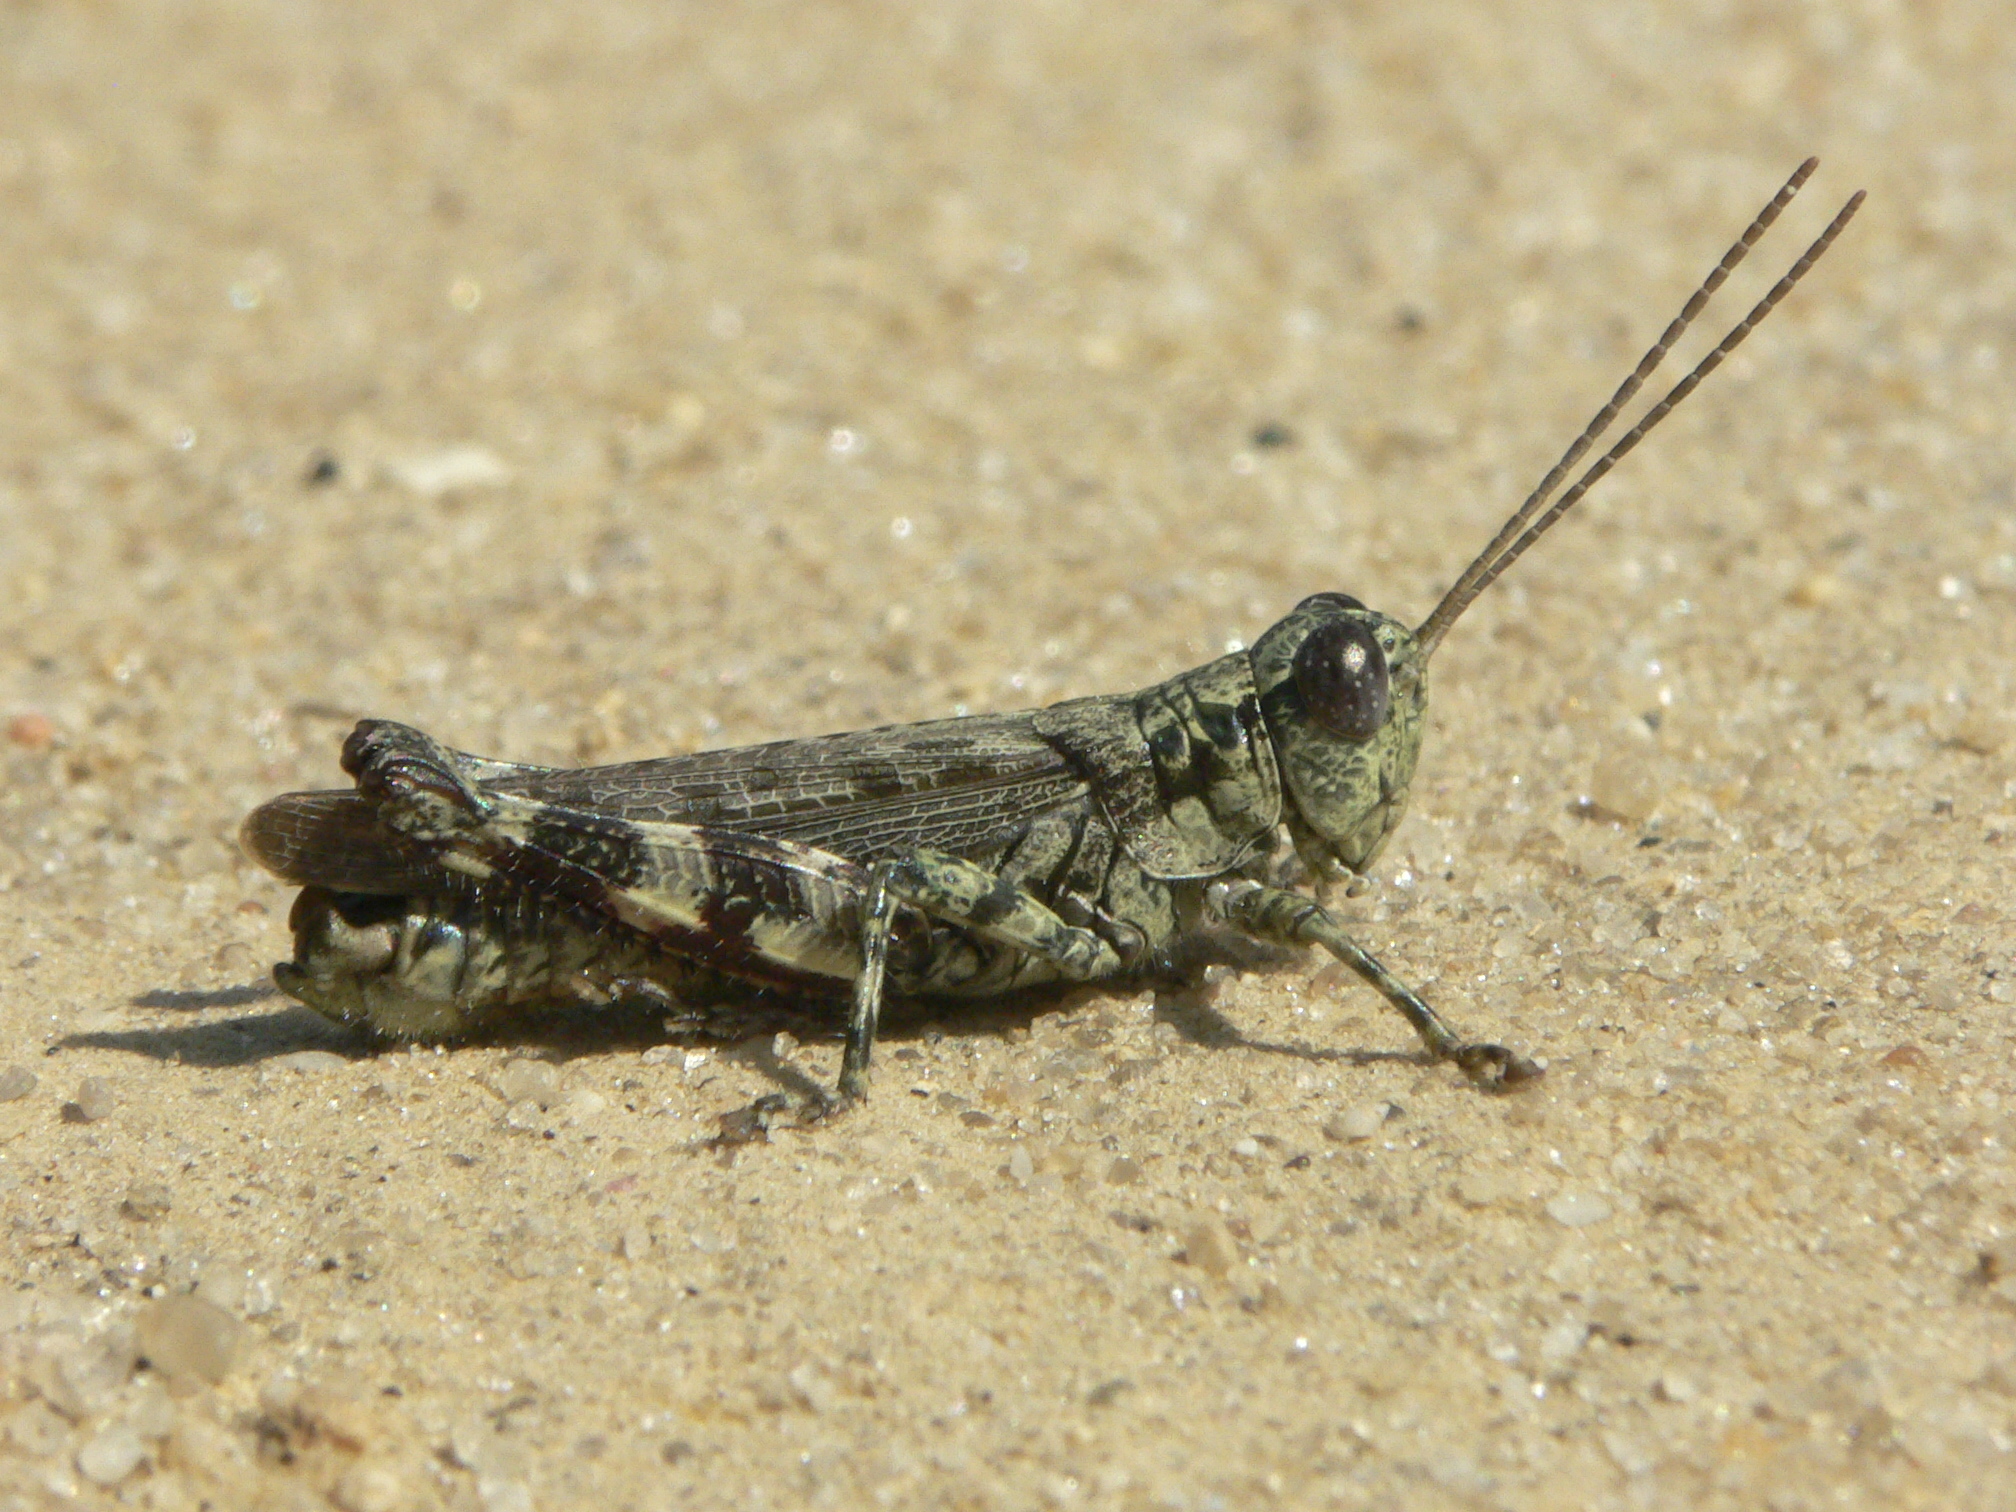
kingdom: Animalia
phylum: Arthropoda
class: Insecta
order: Orthoptera
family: Acrididae
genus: Melanoplus
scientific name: Melanoplus punctulatus
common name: Pine-tree spur-throat grasshopper
